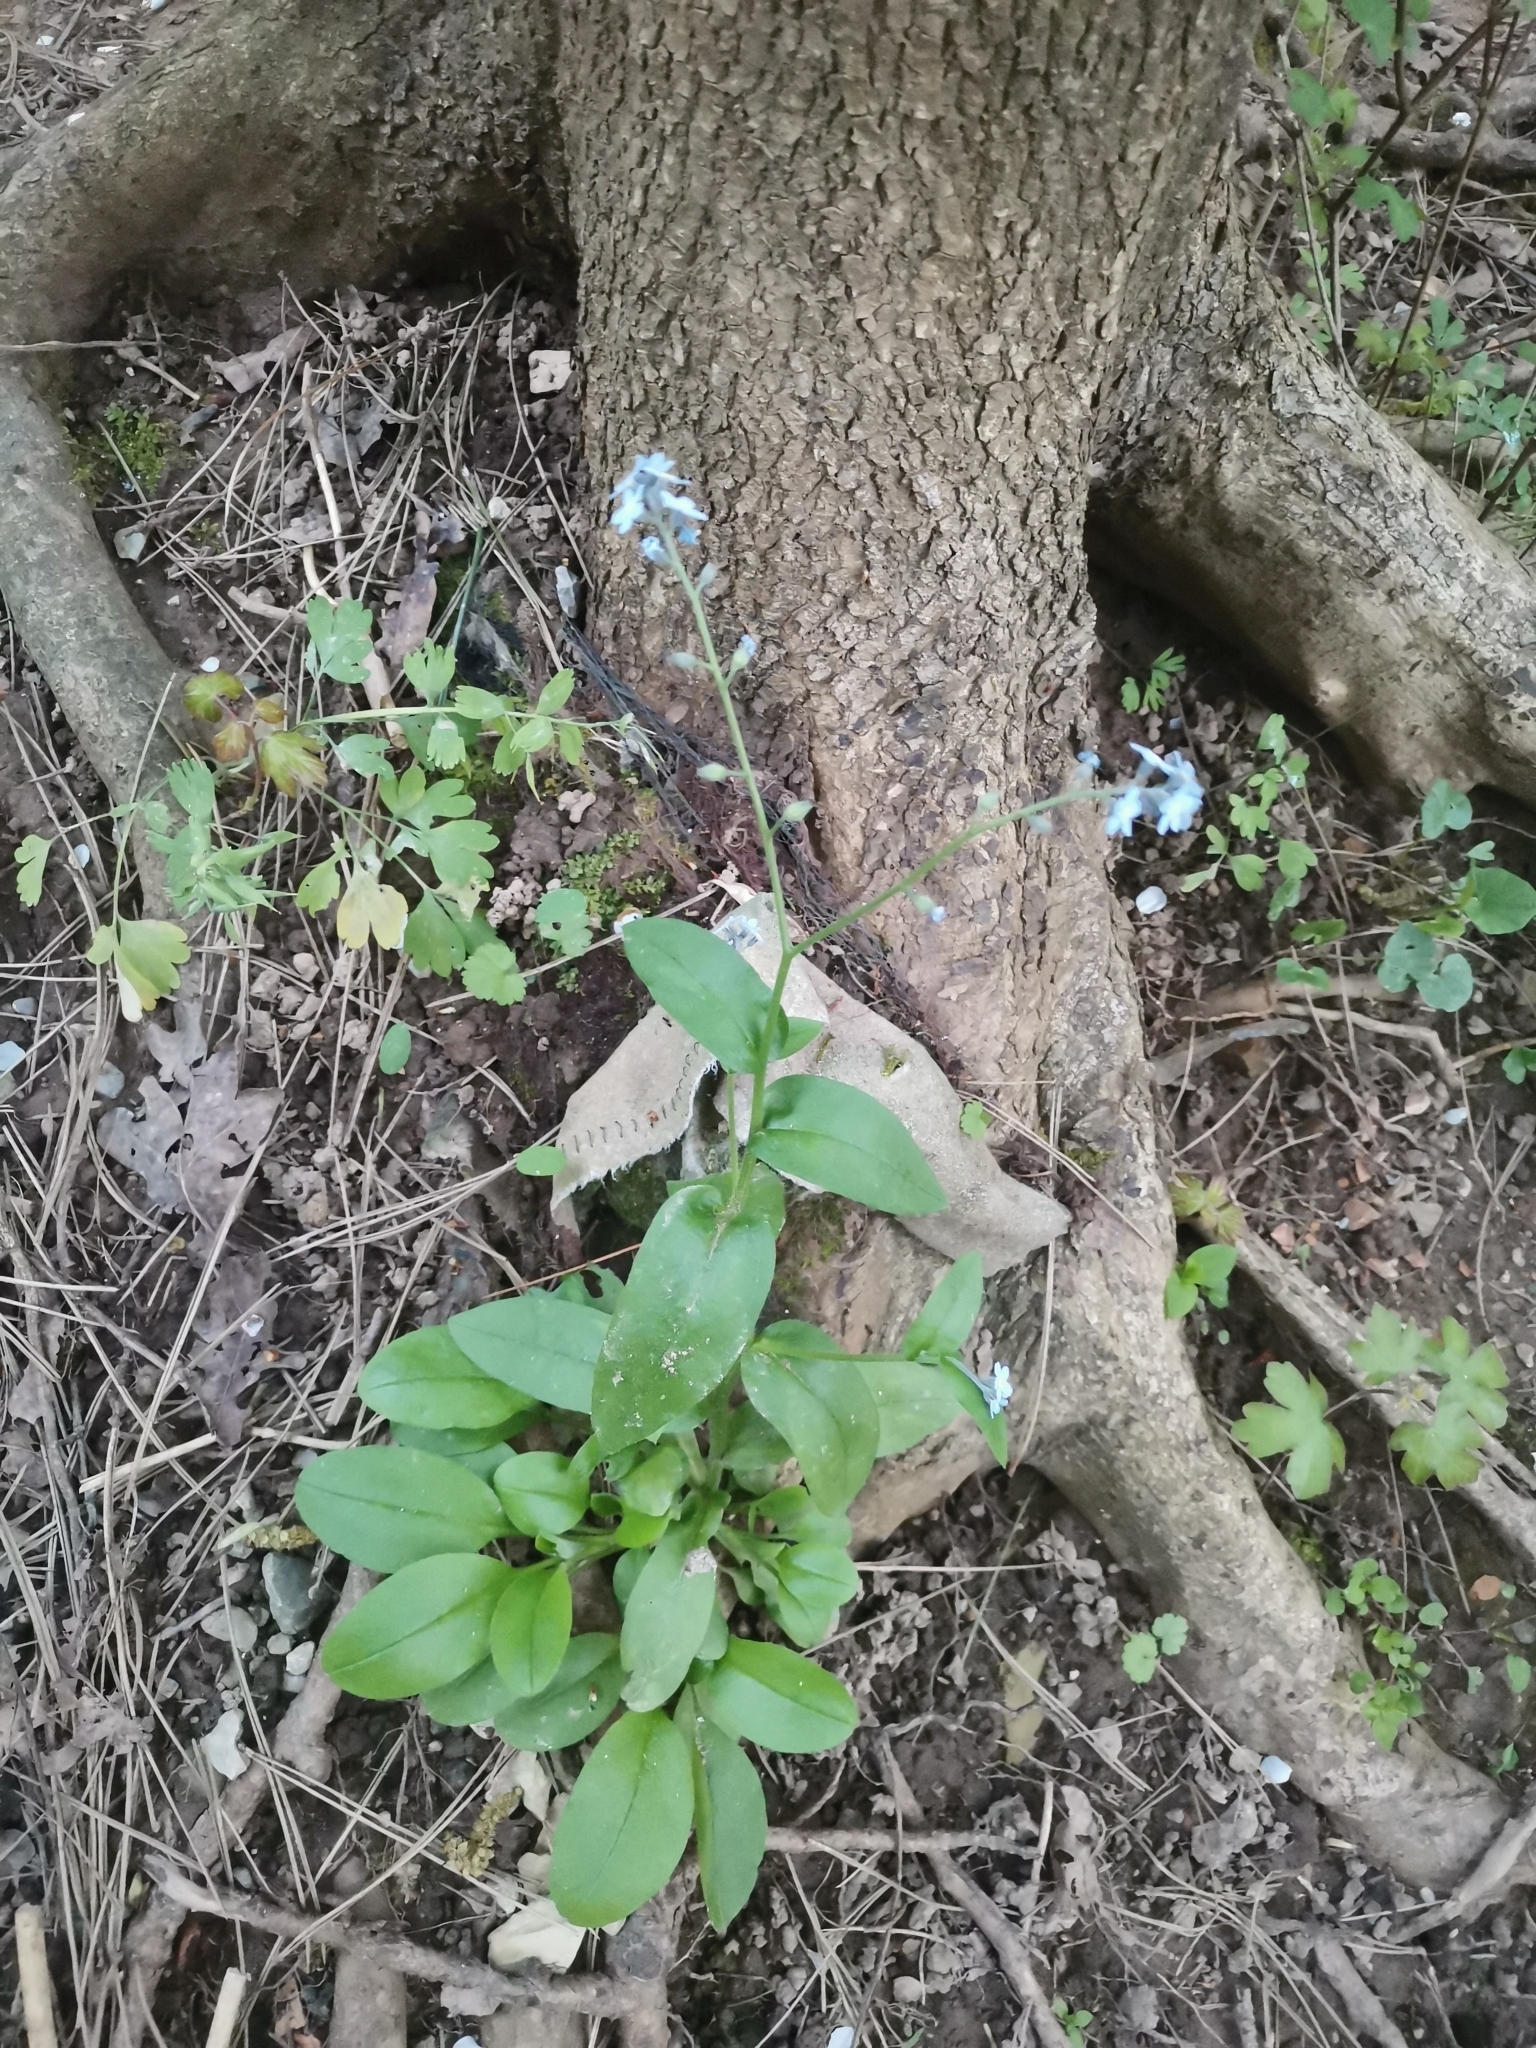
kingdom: Plantae
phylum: Tracheophyta
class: Magnoliopsida
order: Boraginales
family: Boraginaceae
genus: Myosotis
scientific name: Myosotis sylvatica
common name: Wood forget-me-not
